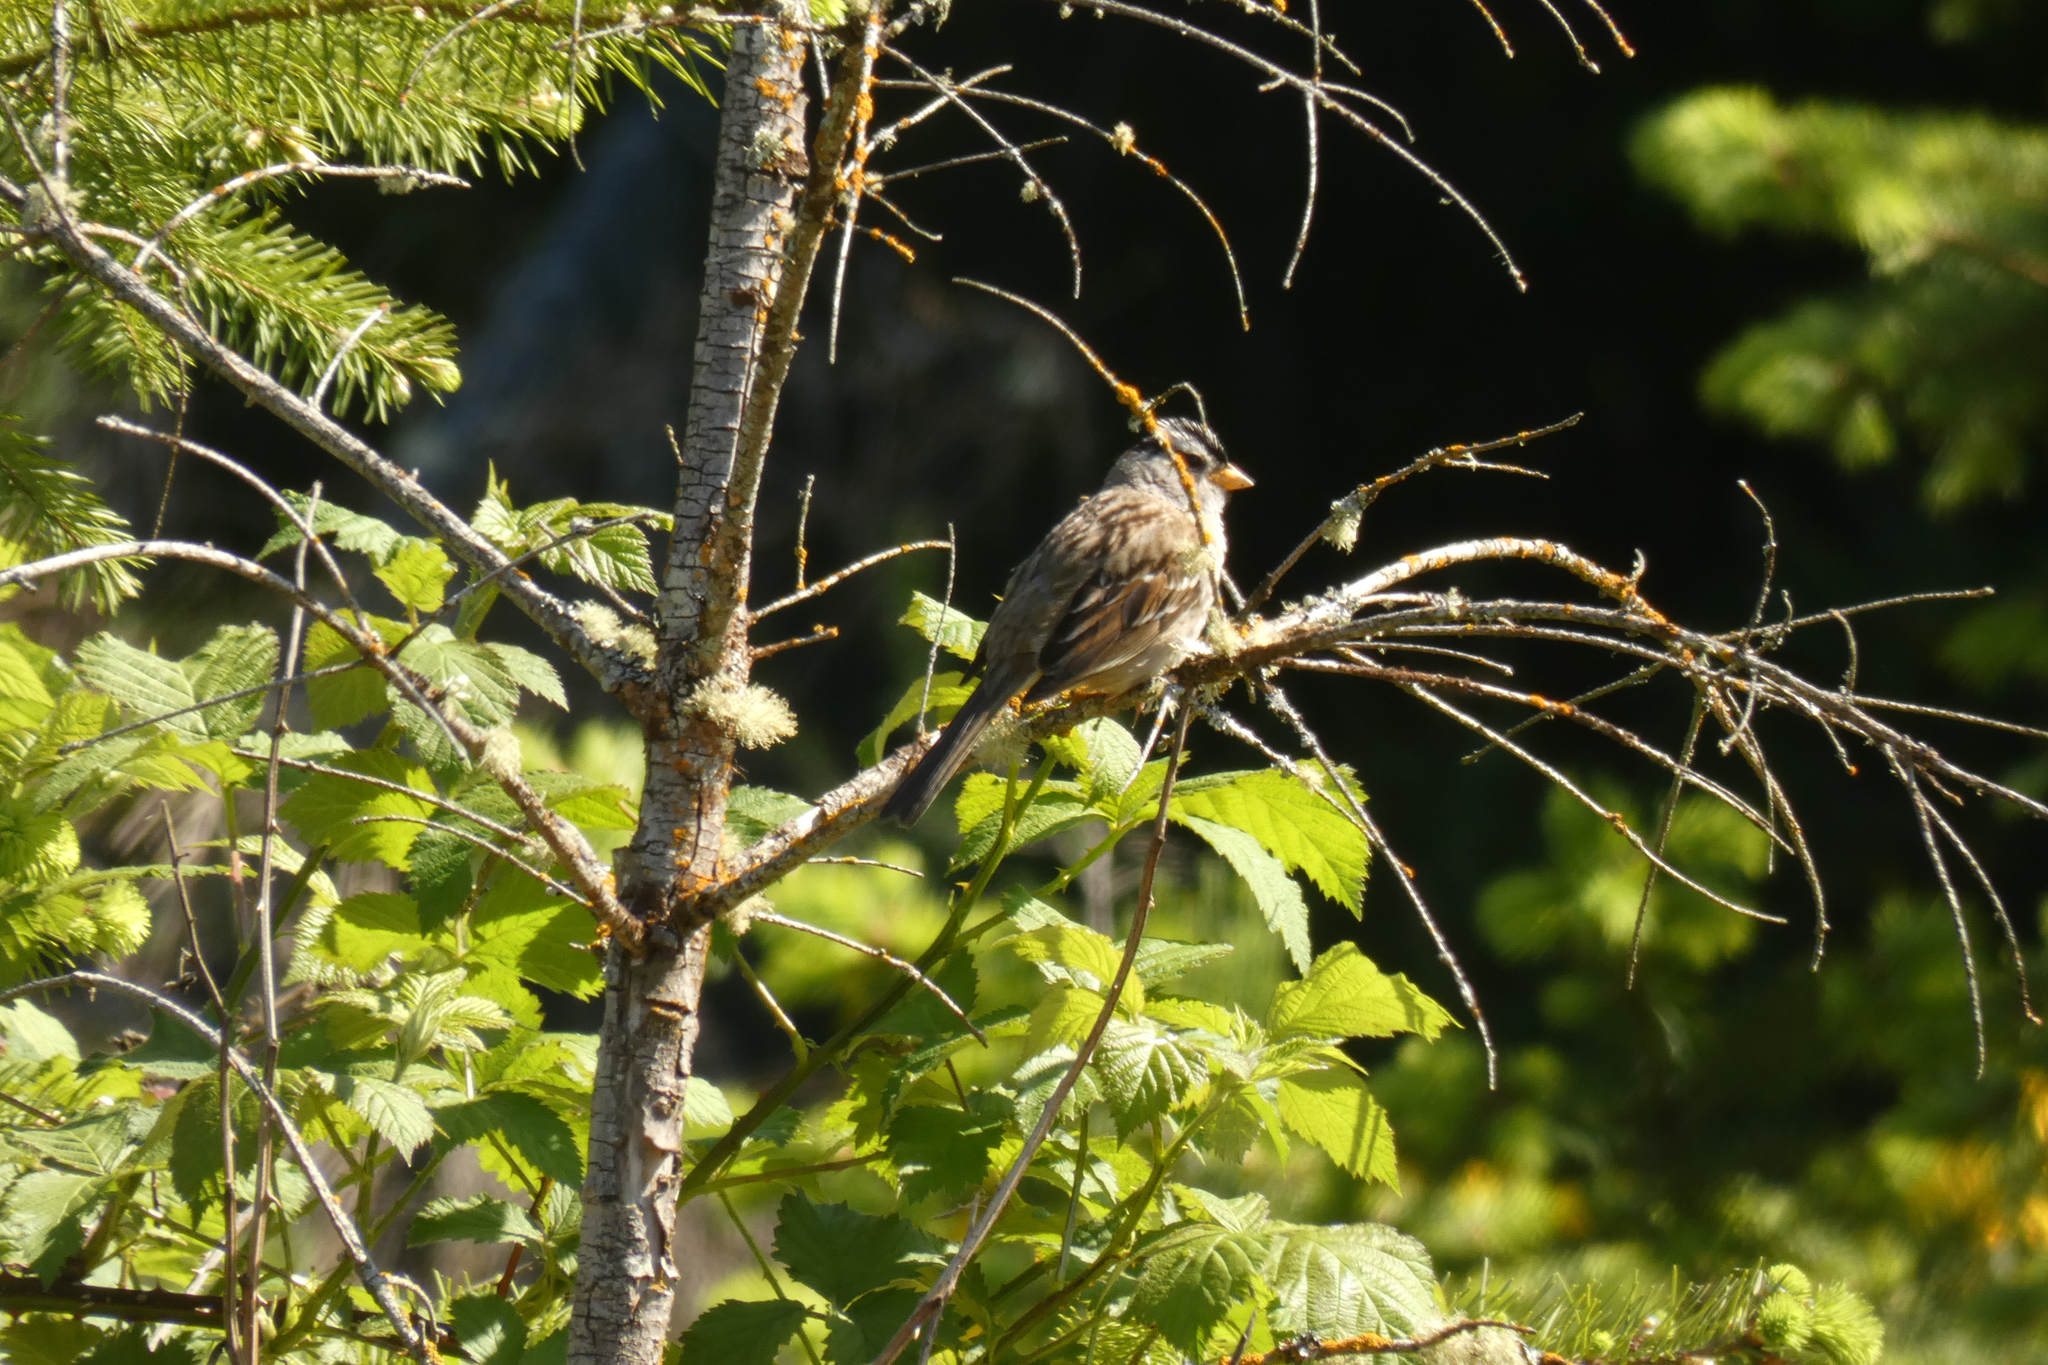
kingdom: Animalia
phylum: Chordata
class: Aves
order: Passeriformes
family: Passerellidae
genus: Zonotrichia
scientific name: Zonotrichia leucophrys
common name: White-crowned sparrow
